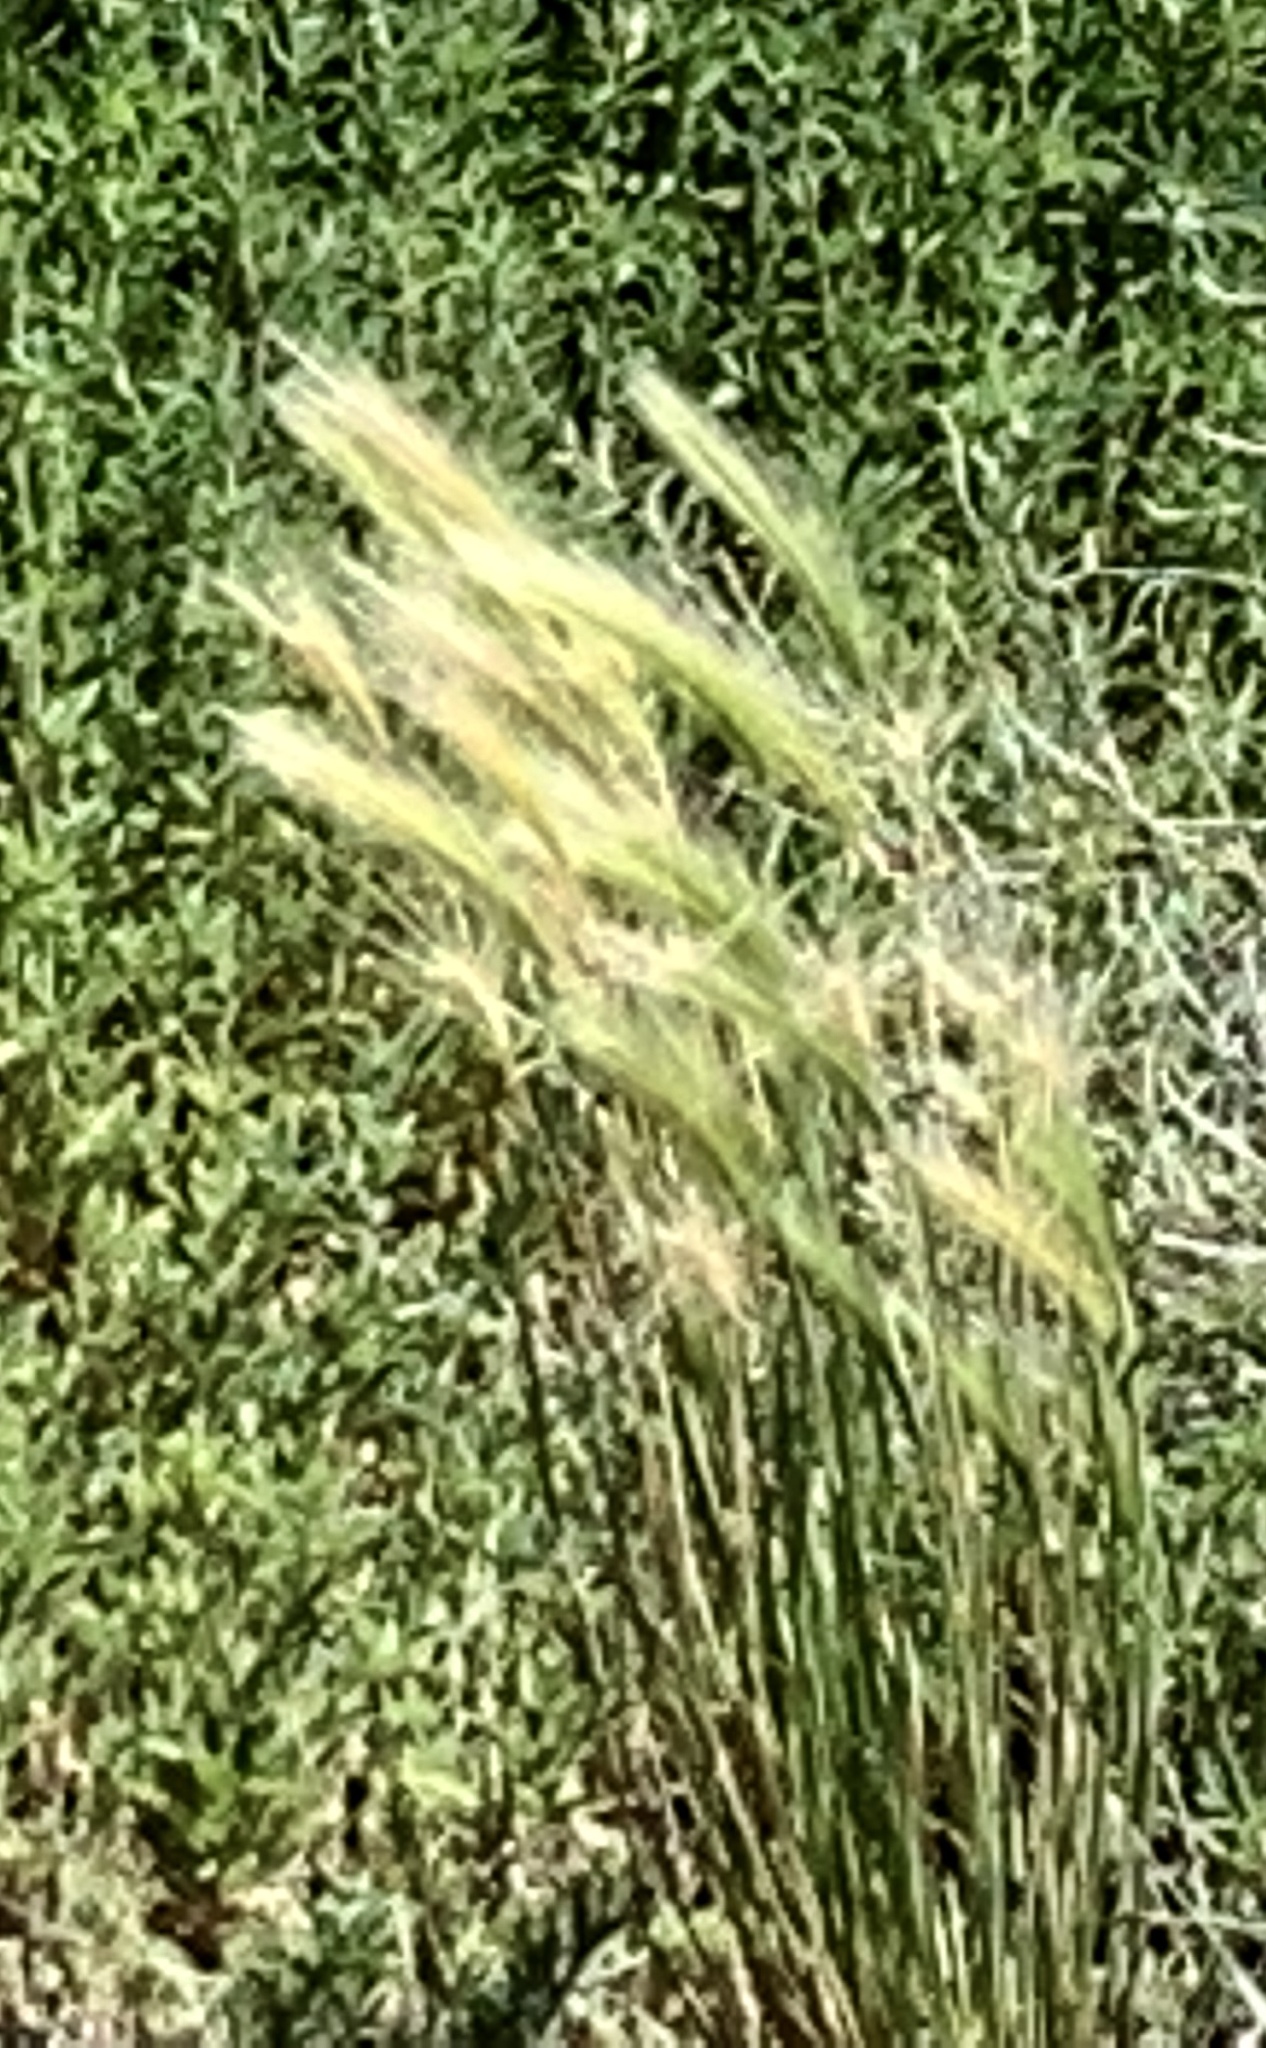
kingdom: Plantae
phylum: Tracheophyta
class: Liliopsida
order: Poales
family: Poaceae
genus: Hordeum
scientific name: Hordeum jubatum
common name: Foxtail barley
